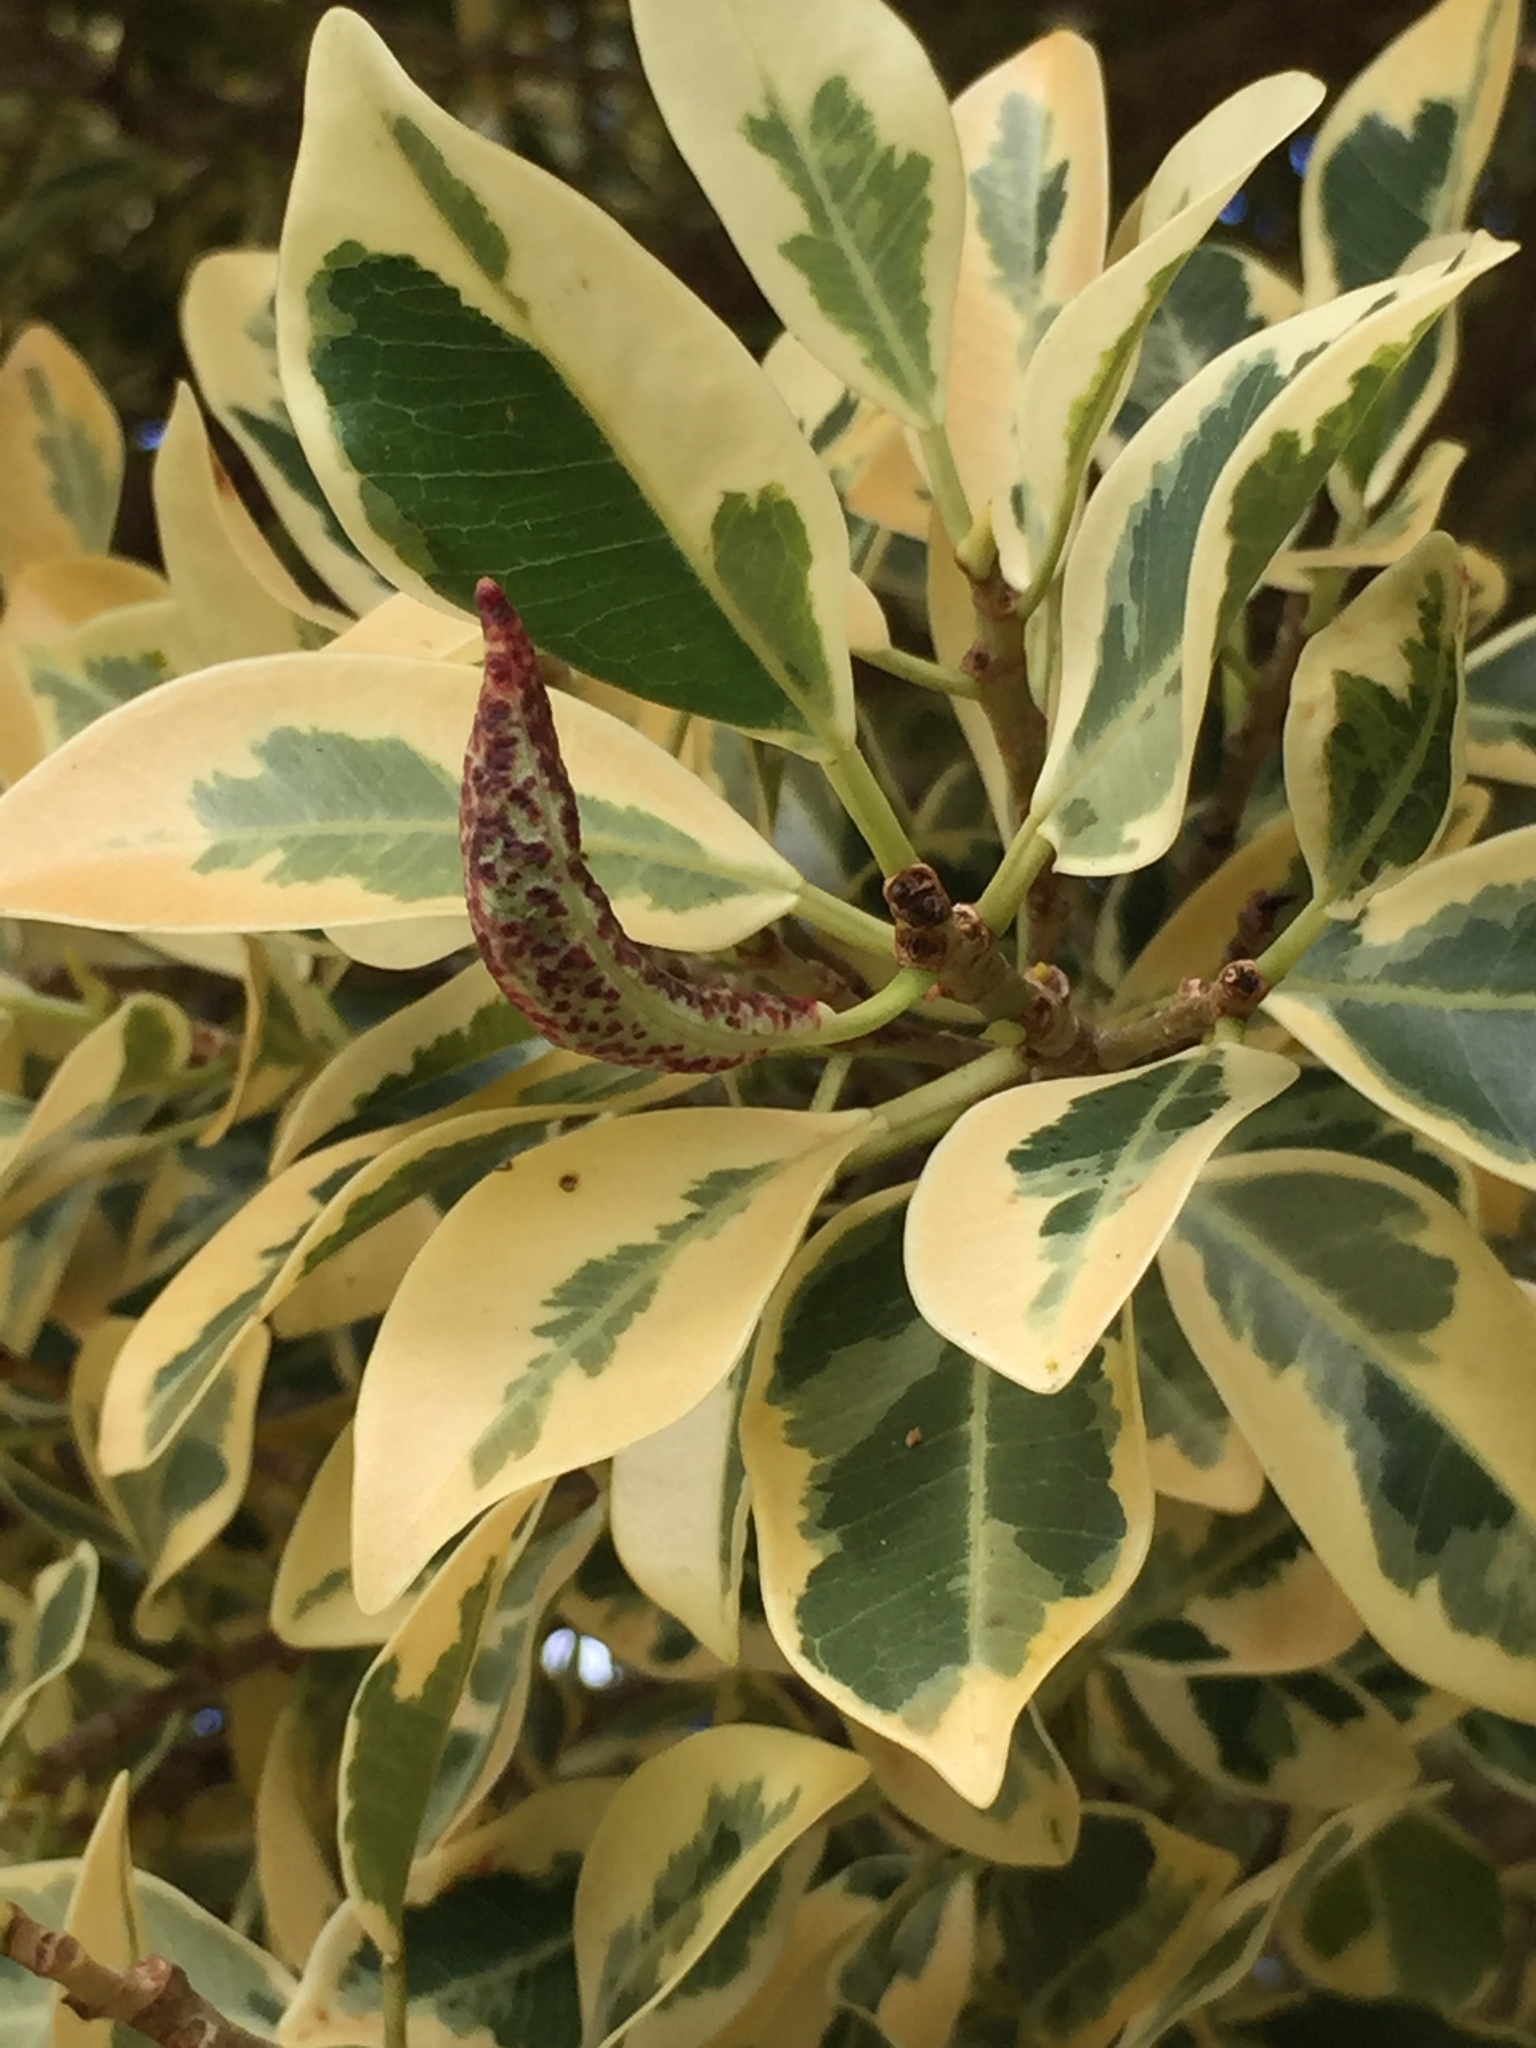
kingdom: Animalia
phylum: Arthropoda
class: Insecta
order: Thysanoptera
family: Phlaeothripidae
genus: Gynaikothrips
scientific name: Gynaikothrips ficorum
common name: Cuban laurel thrips
